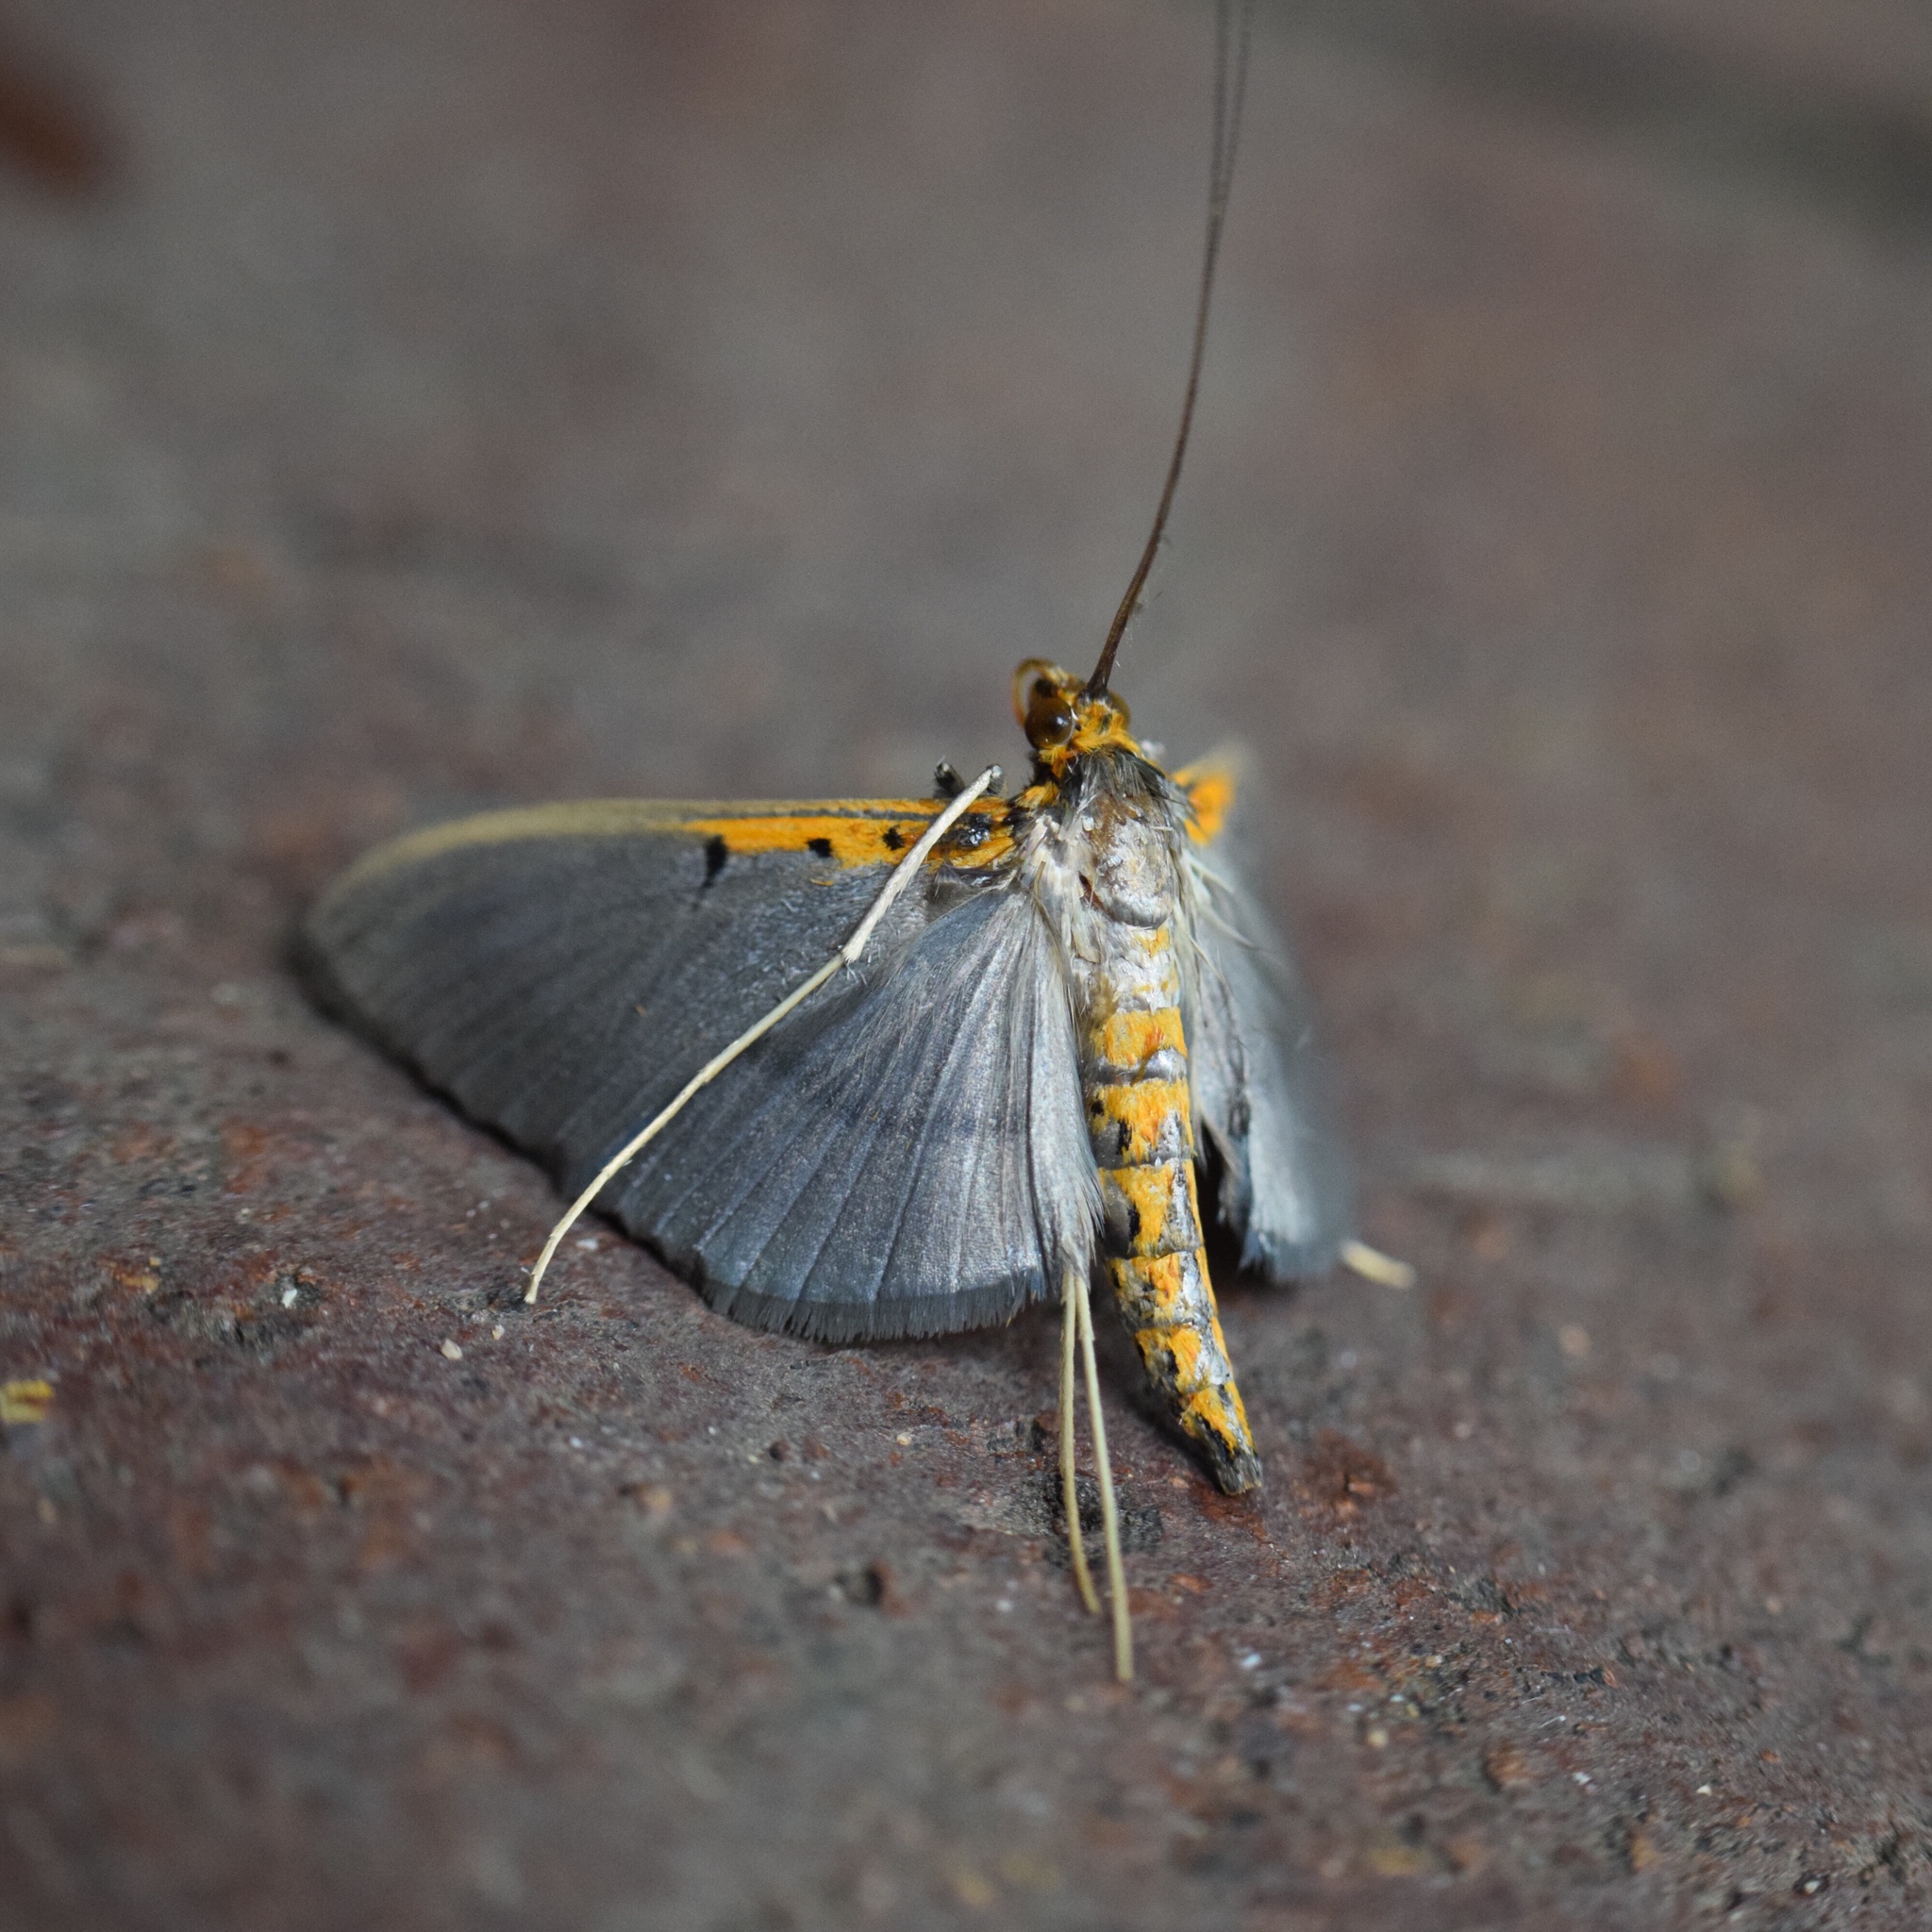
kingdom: Animalia
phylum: Arthropoda
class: Insecta
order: Lepidoptera
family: Crambidae
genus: Filodes
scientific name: Filodes costivitralis
